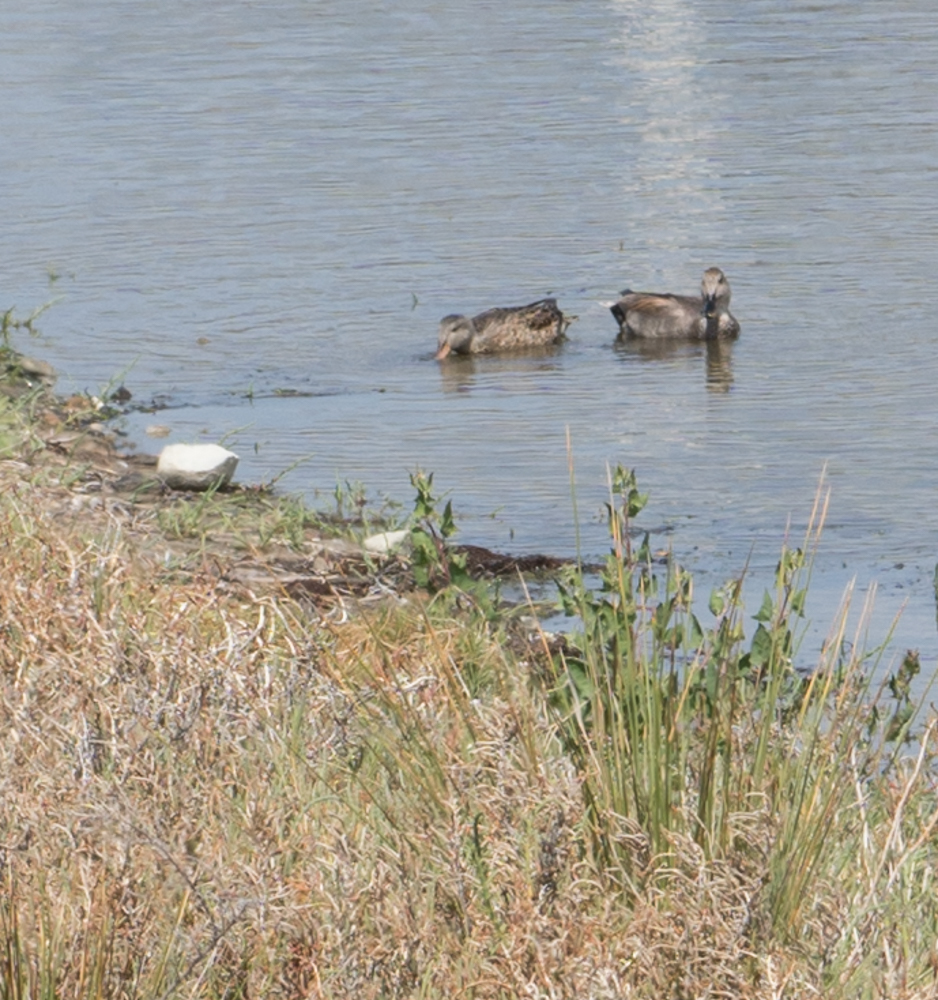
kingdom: Animalia
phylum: Chordata
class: Aves
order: Anseriformes
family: Anatidae
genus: Mareca
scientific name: Mareca strepera
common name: Gadwall
